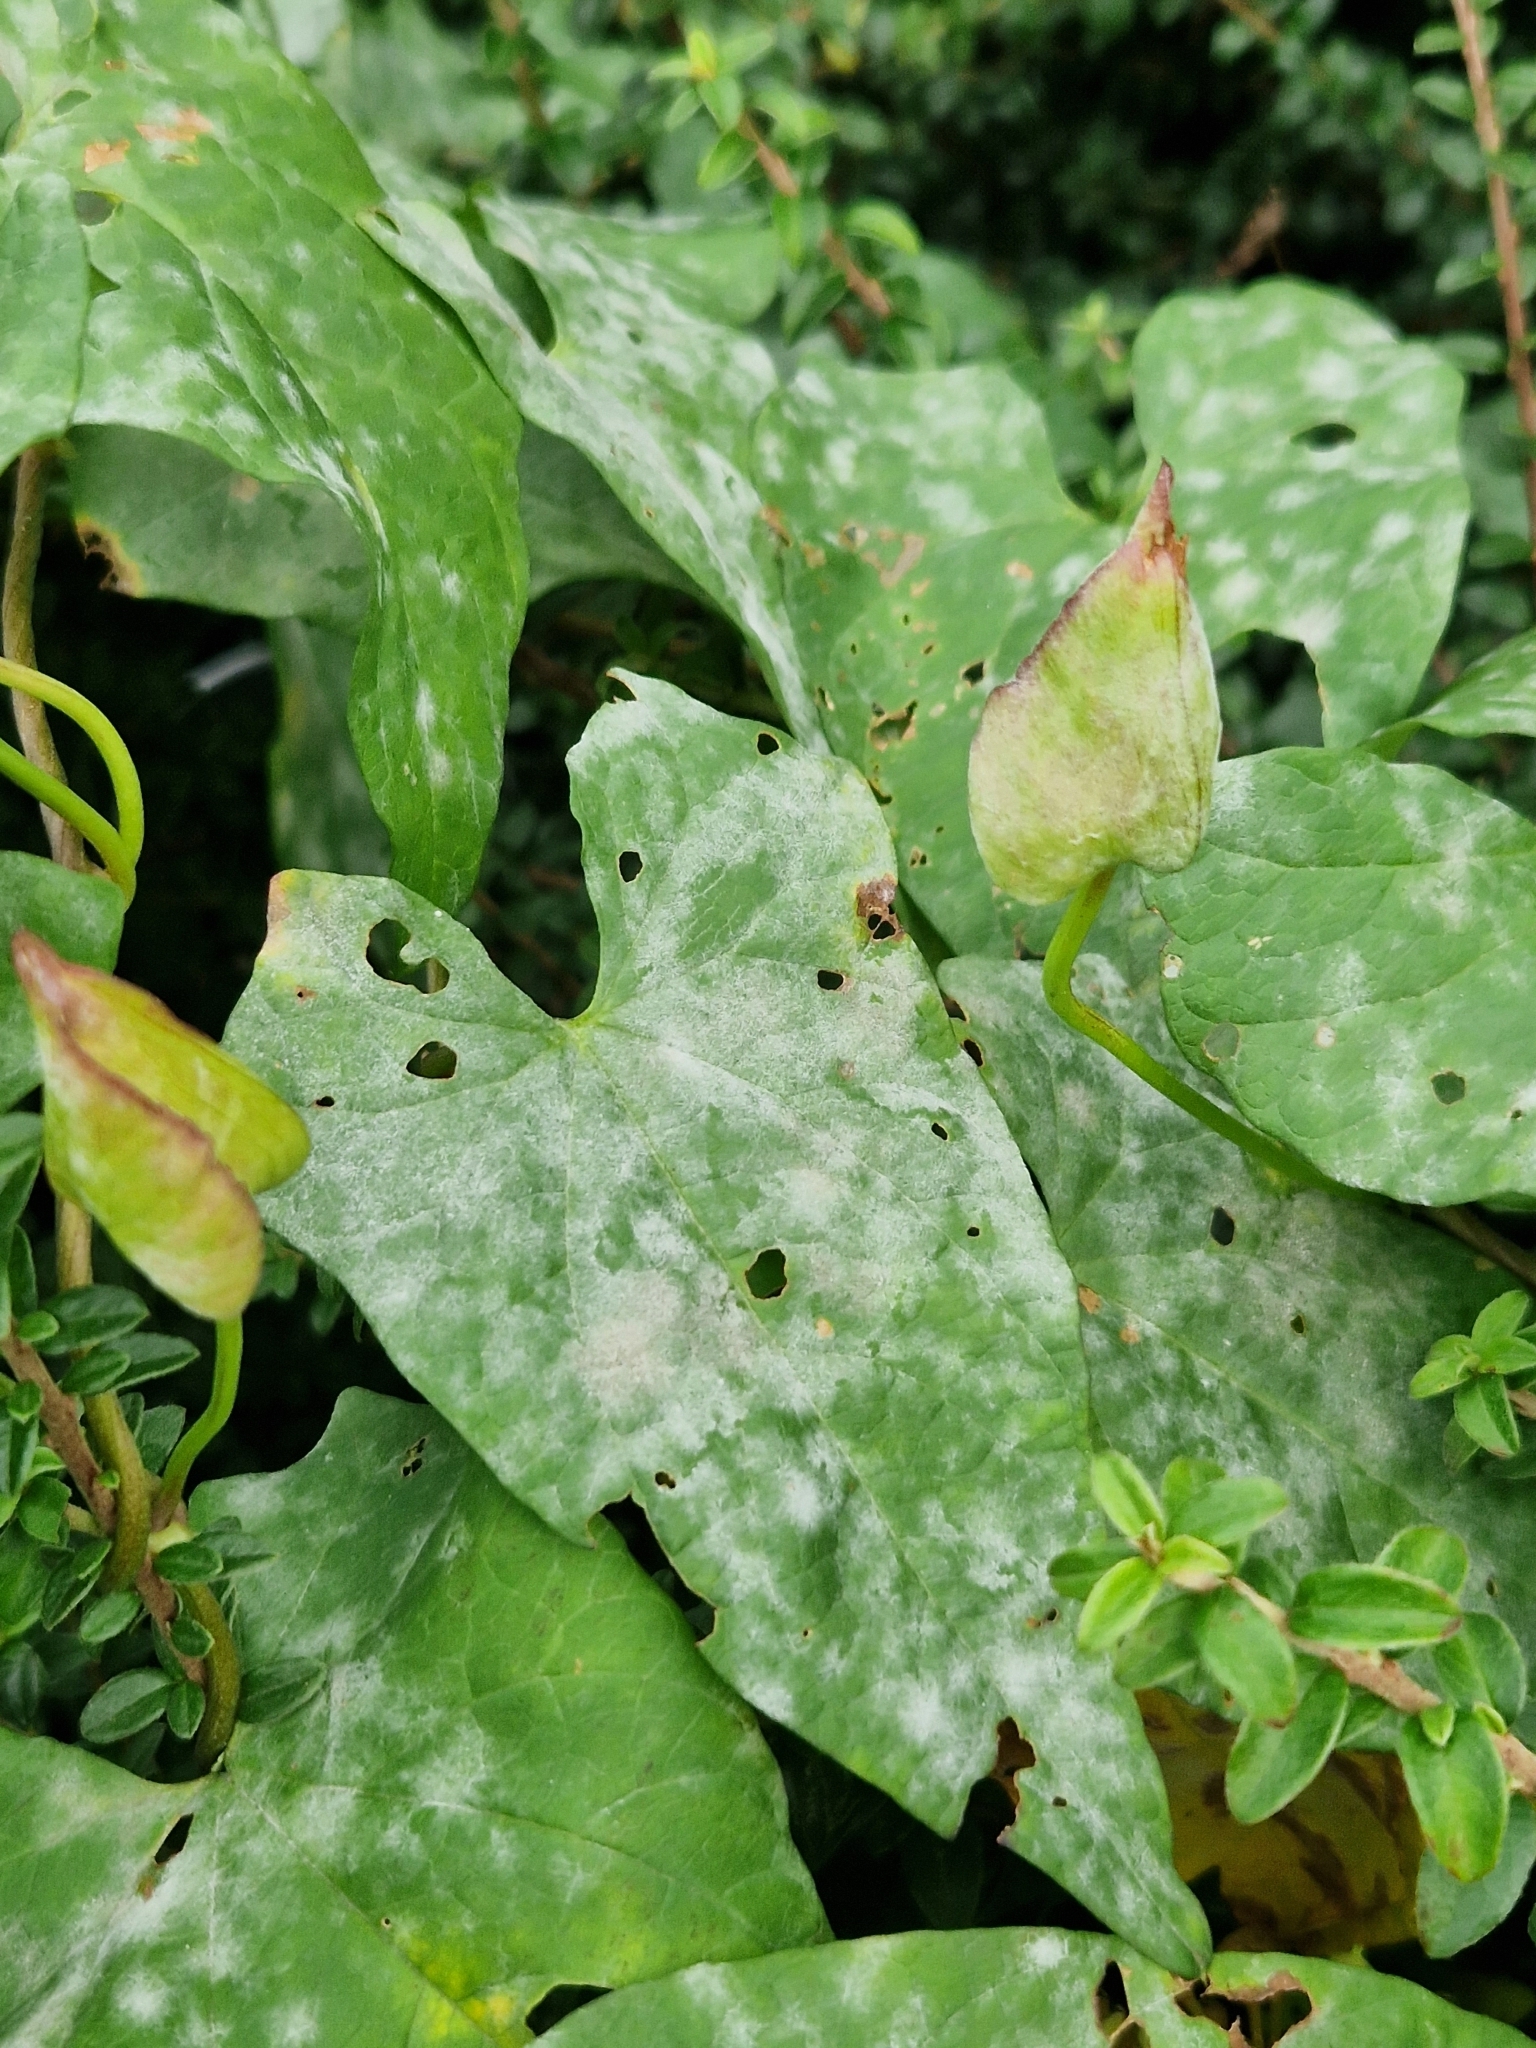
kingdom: Fungi
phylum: Ascomycota
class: Leotiomycetes
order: Helotiales
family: Erysiphaceae
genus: Erysiphe
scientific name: Erysiphe convolvuli
